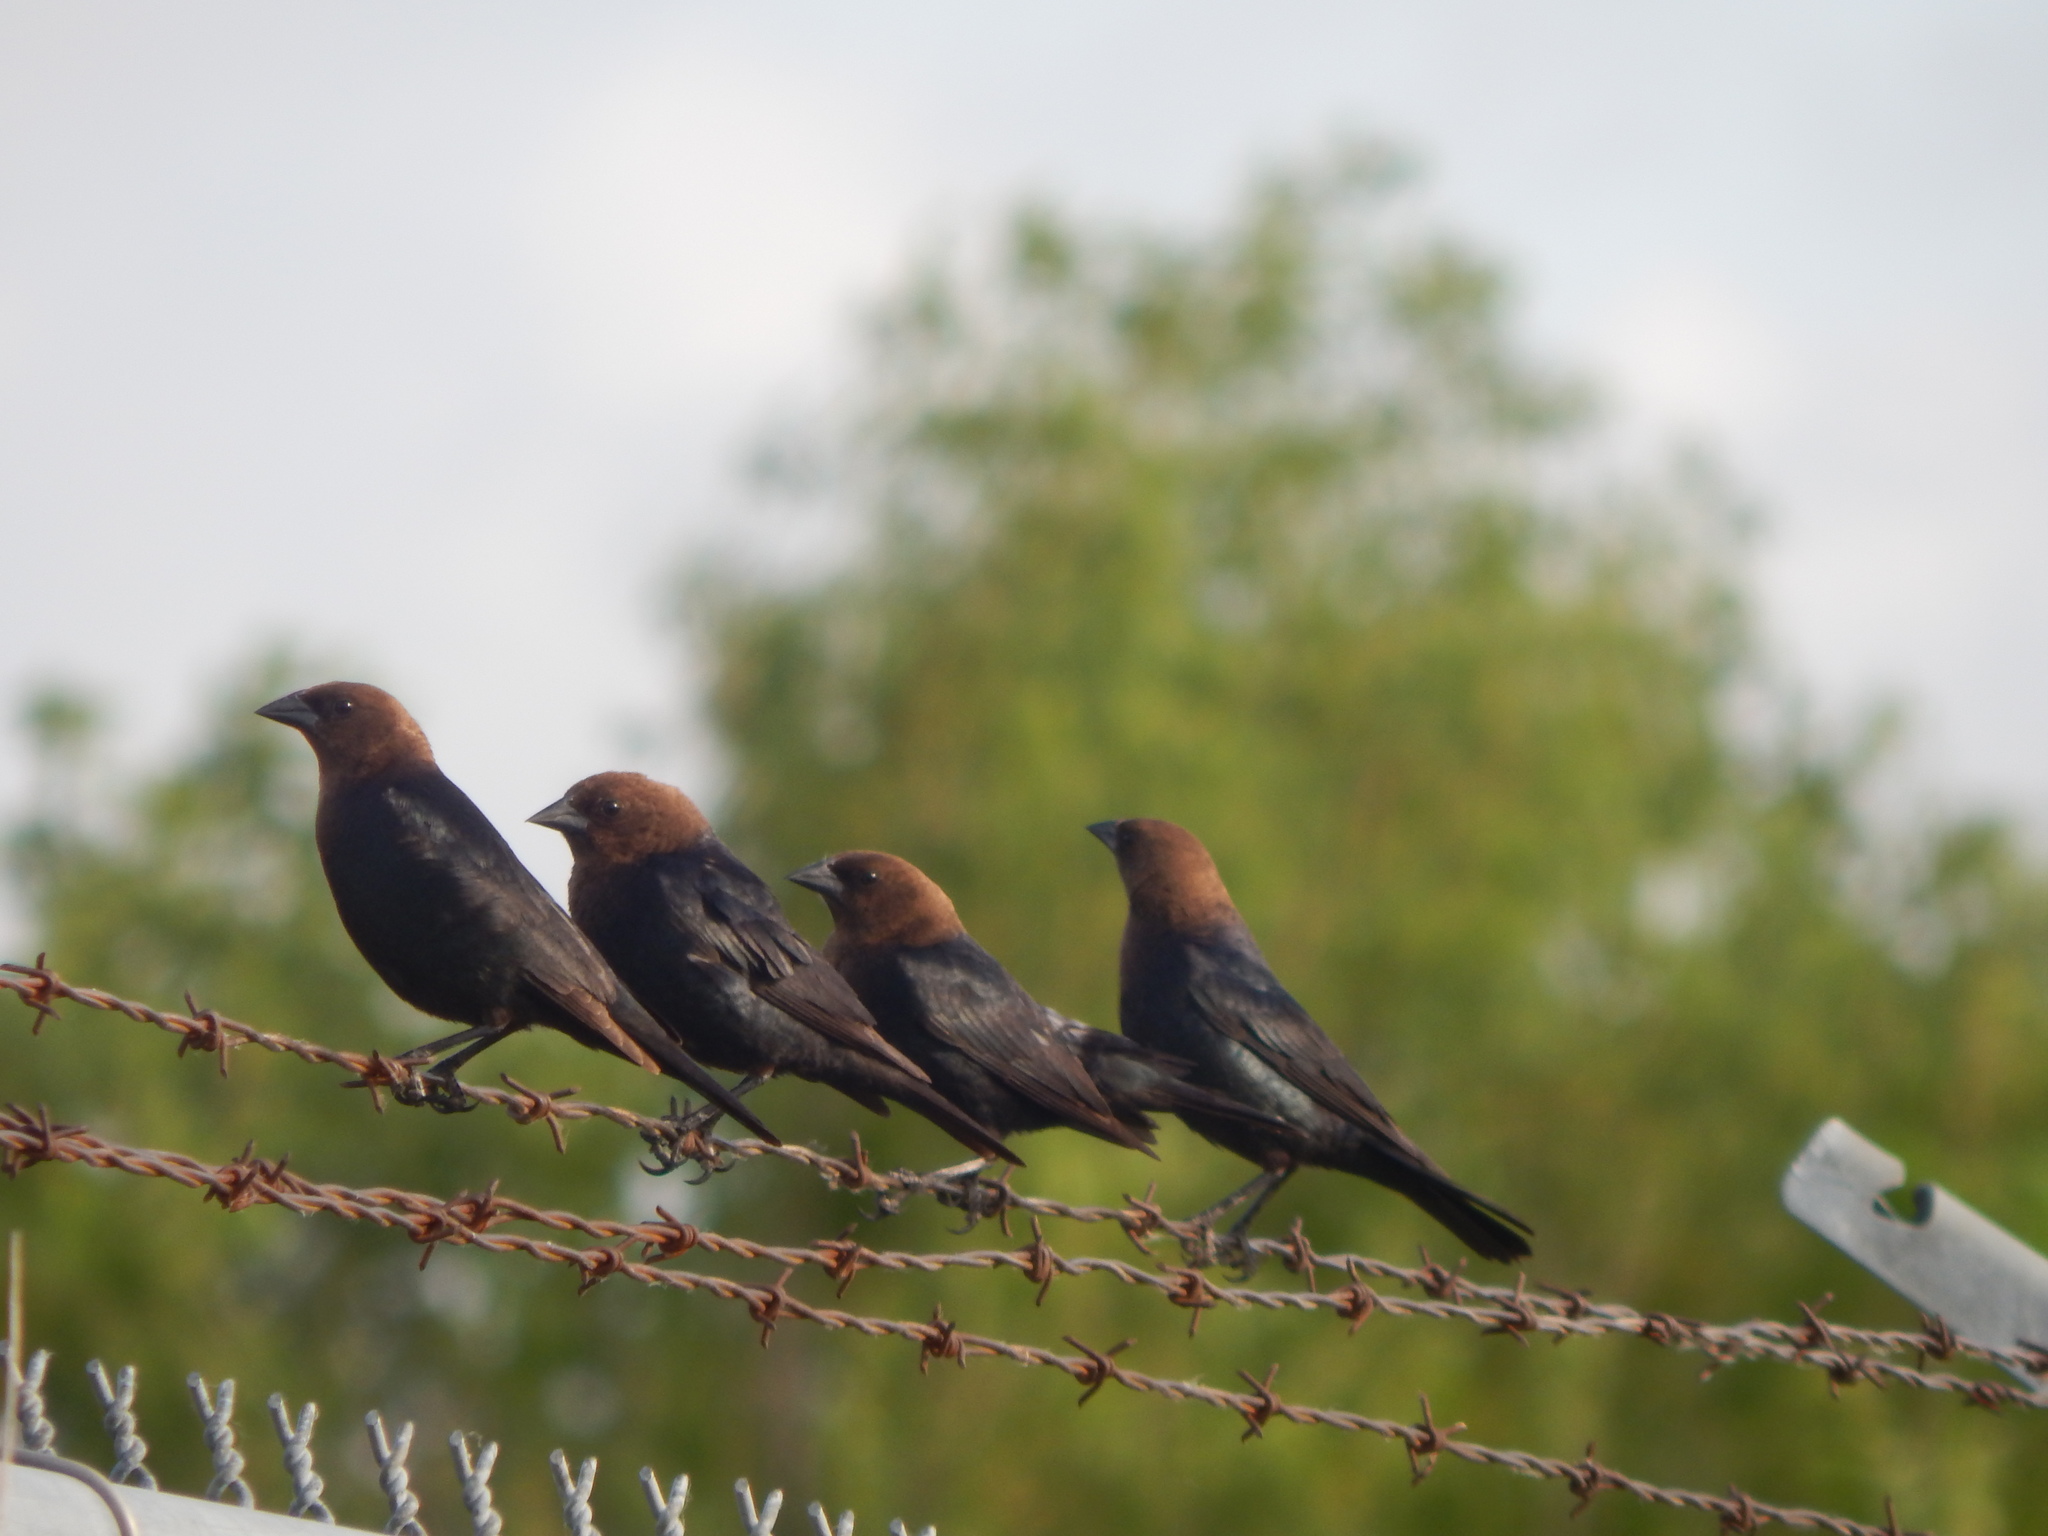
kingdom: Animalia
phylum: Chordata
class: Aves
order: Passeriformes
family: Icteridae
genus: Molothrus
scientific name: Molothrus ater
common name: Brown-headed cowbird
